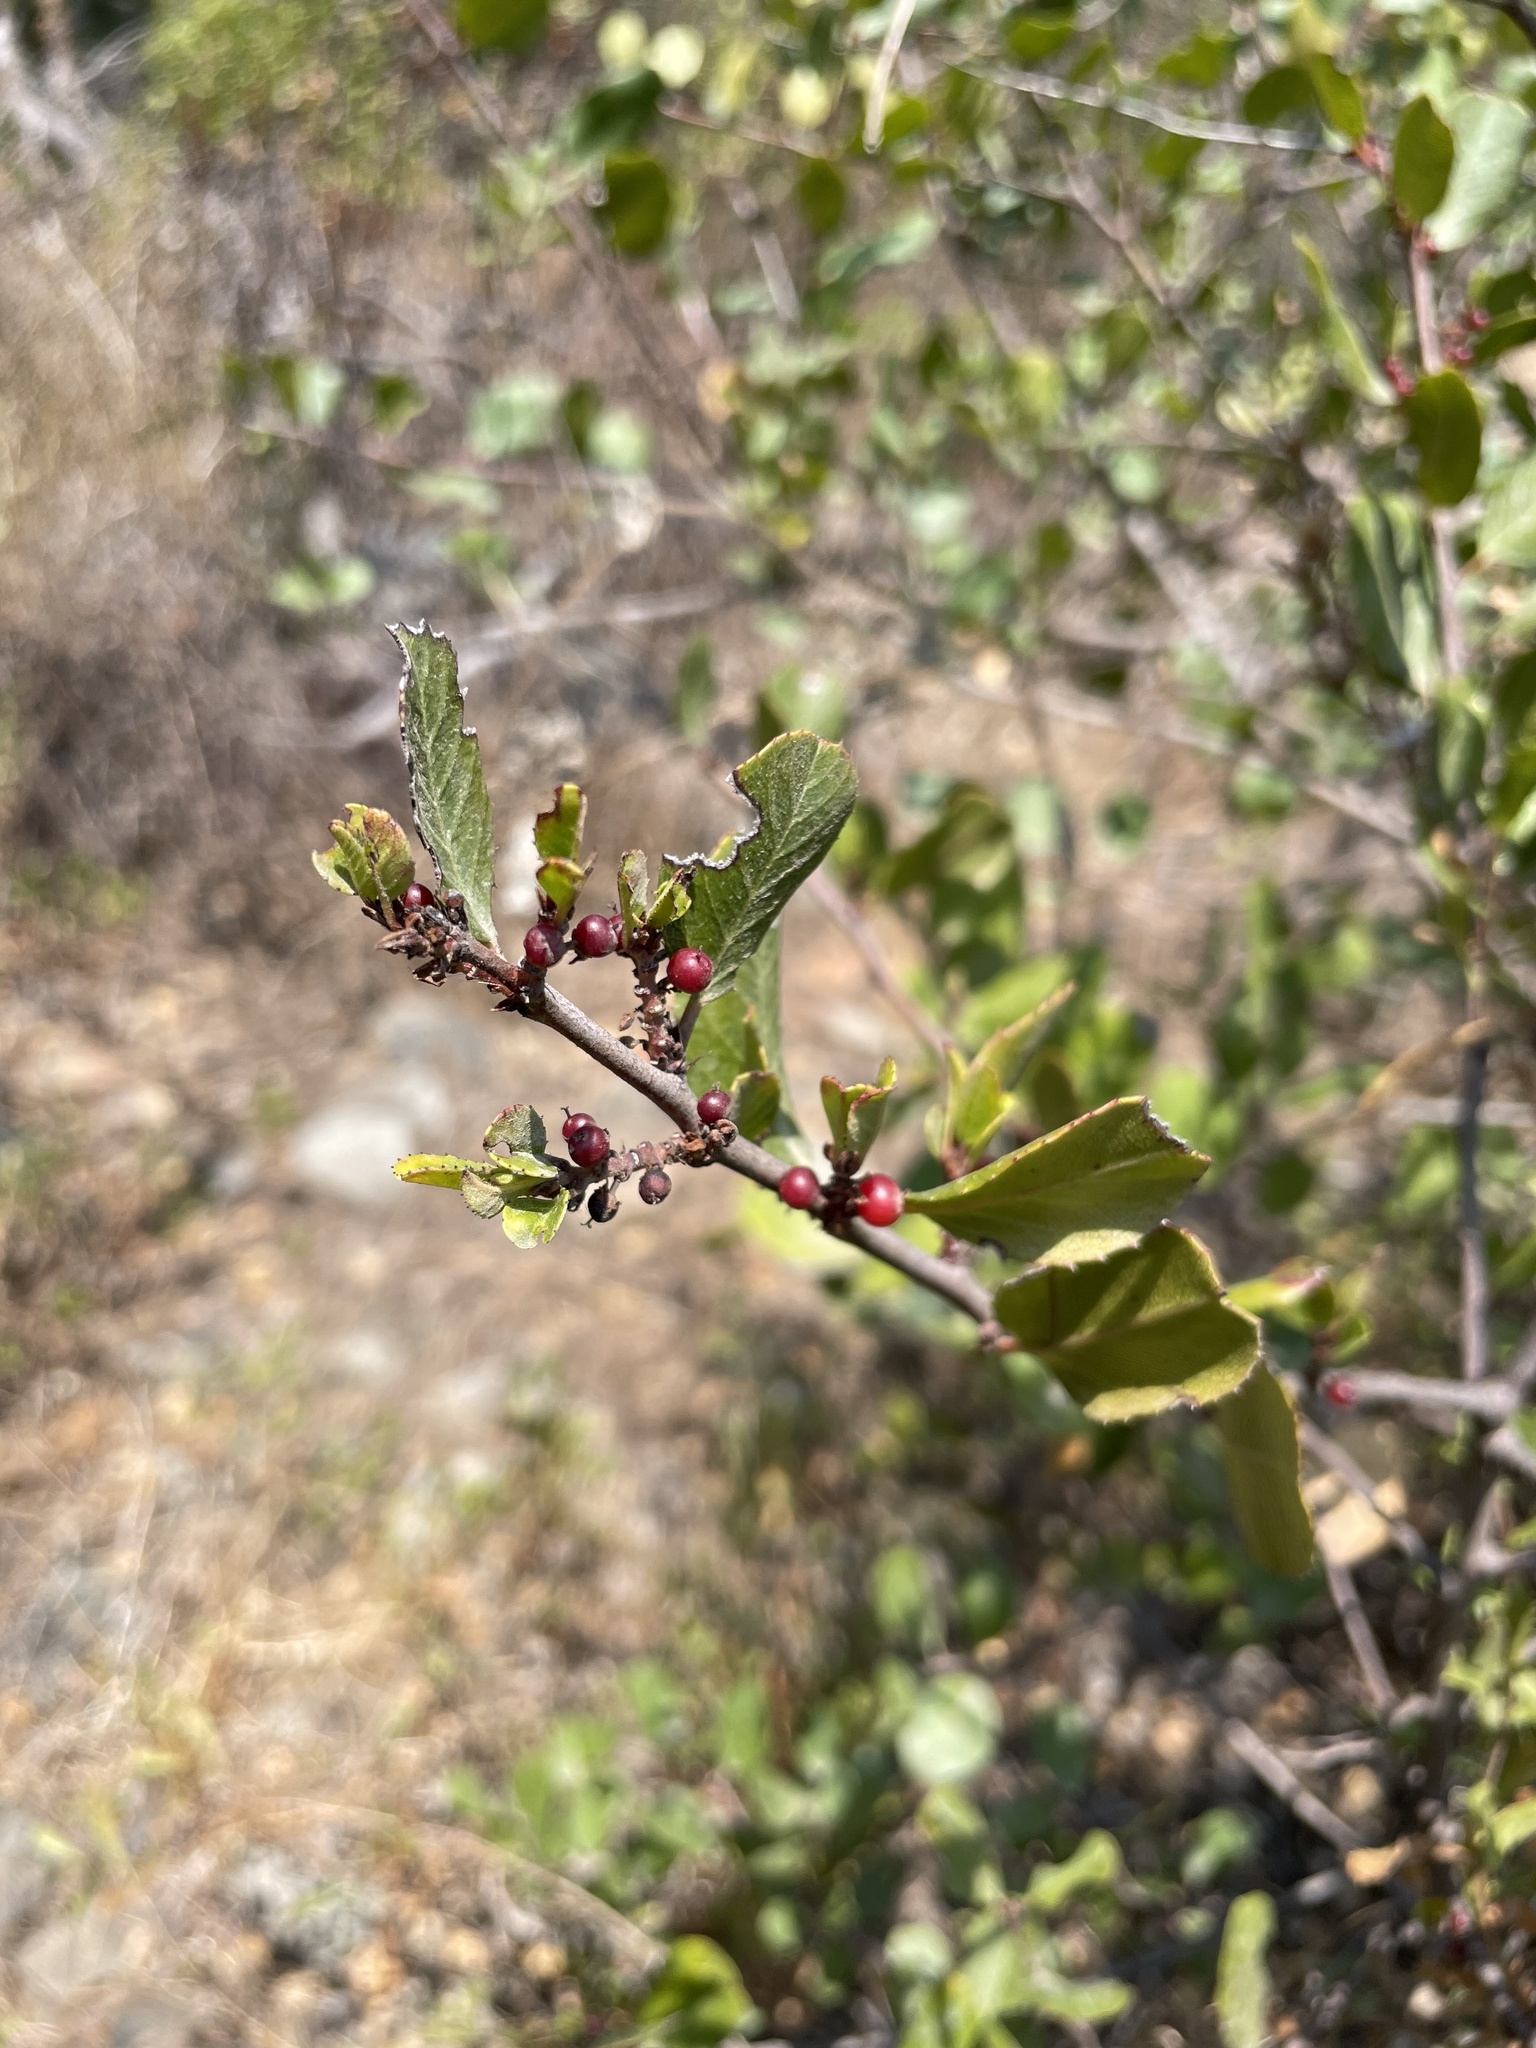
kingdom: Plantae
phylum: Tracheophyta
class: Magnoliopsida
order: Rosales
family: Rhamnaceae
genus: Endotropis
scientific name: Endotropis crocea
